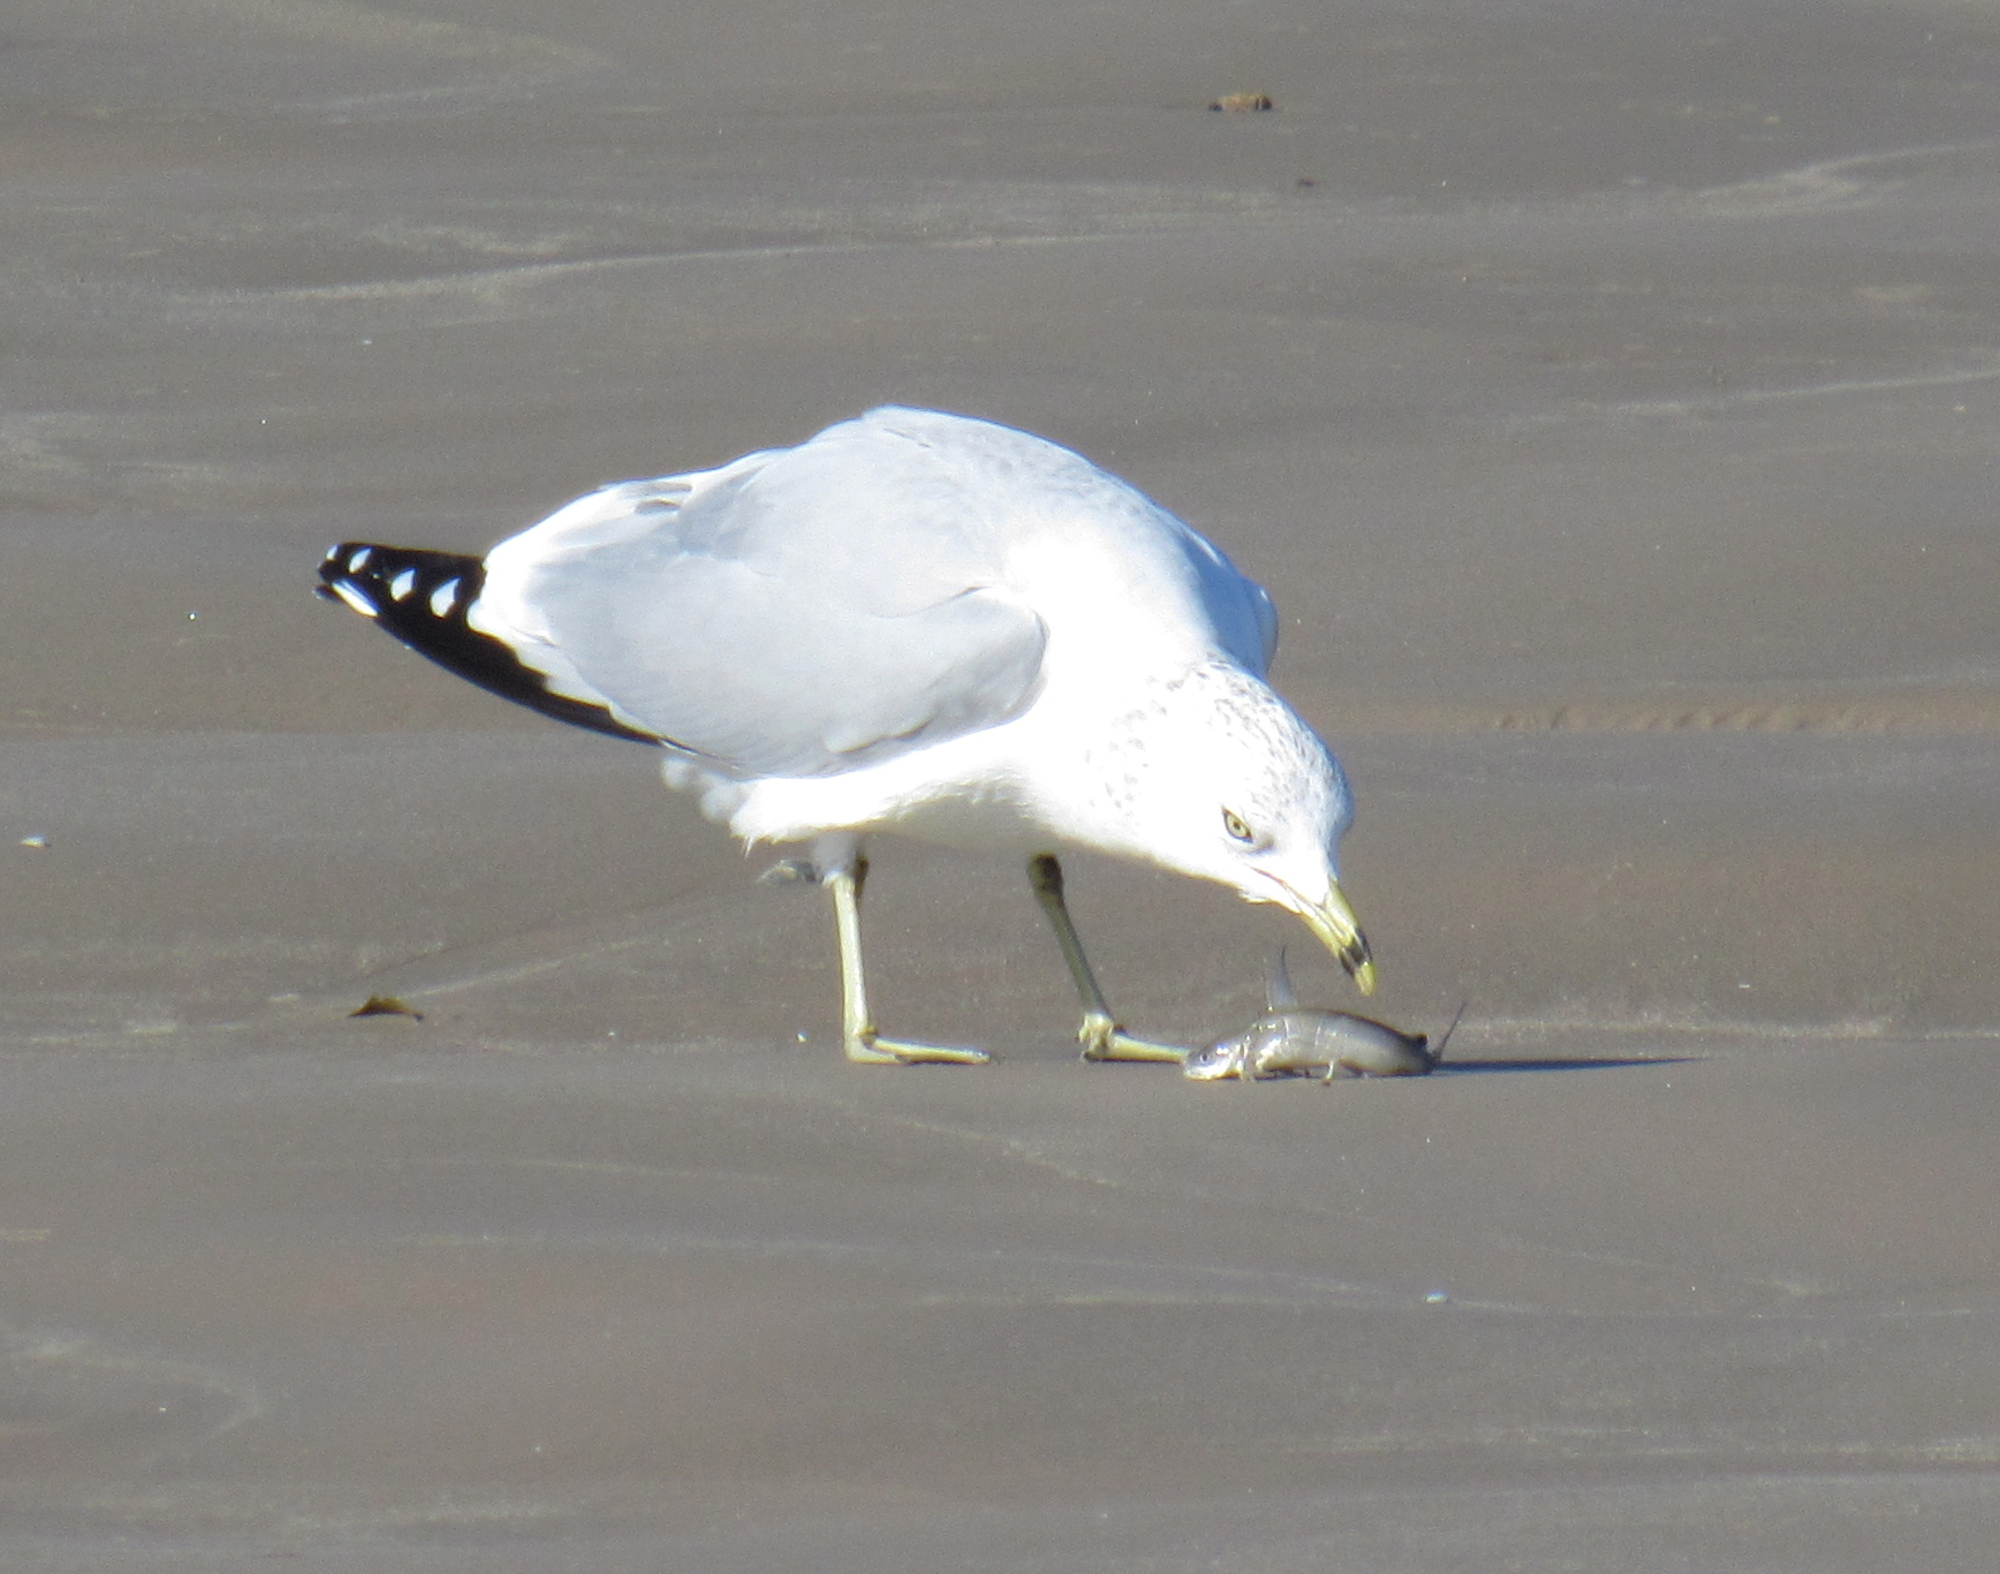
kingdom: Animalia
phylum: Chordata
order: Siluriformes
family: Ariidae
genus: Ariopsis
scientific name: Ariopsis felis
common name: Hardhead catfish
